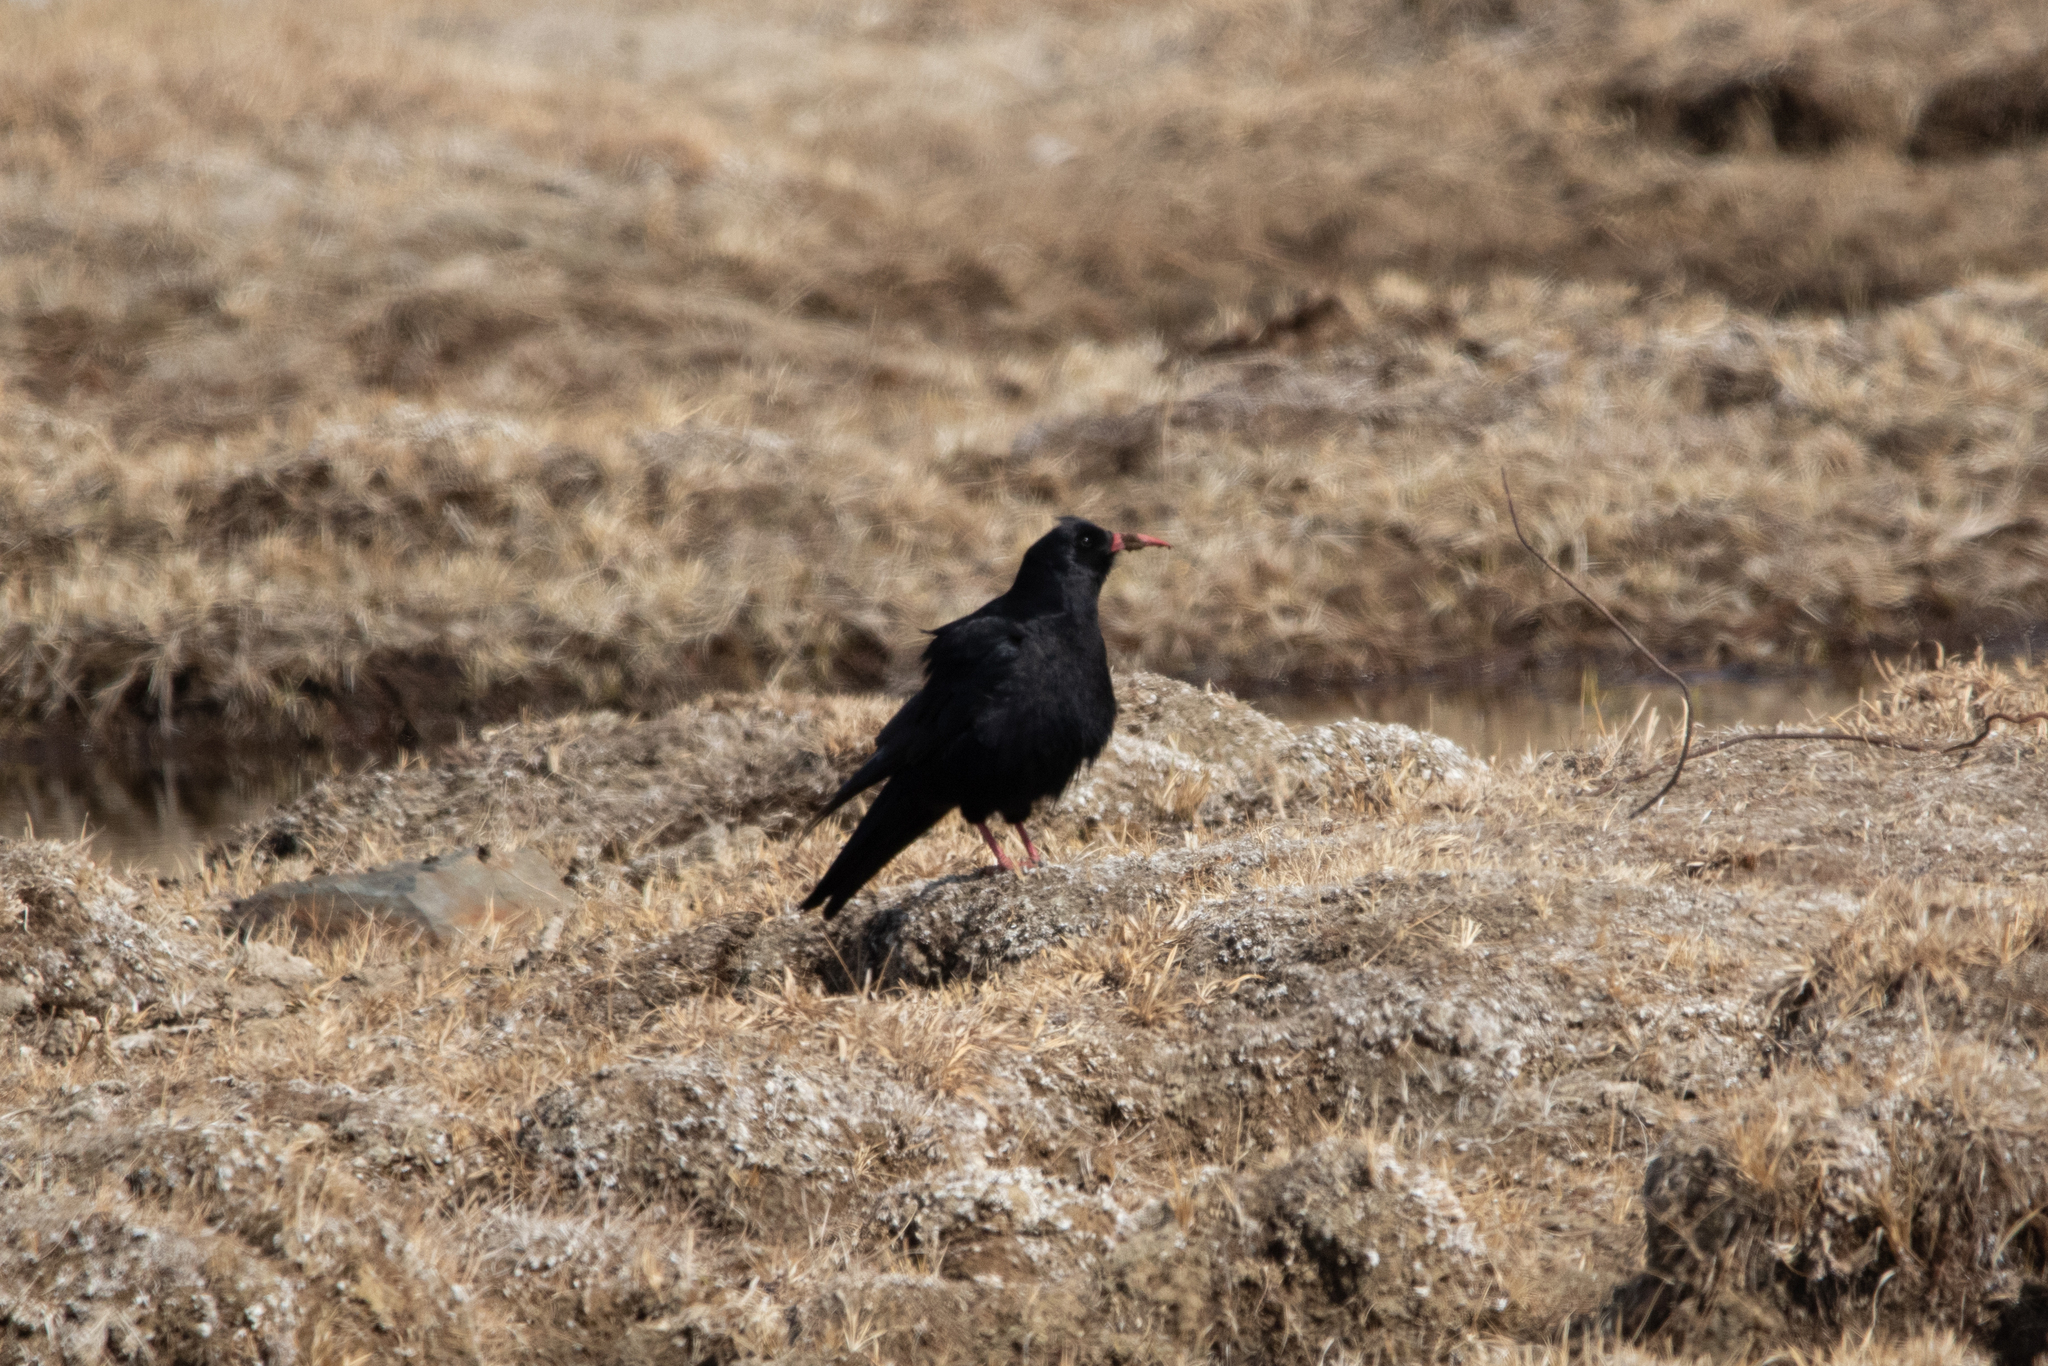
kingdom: Animalia
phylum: Chordata
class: Aves
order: Passeriformes
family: Corvidae
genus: Pyrrhocorax
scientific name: Pyrrhocorax pyrrhocorax
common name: Red-billed chough
